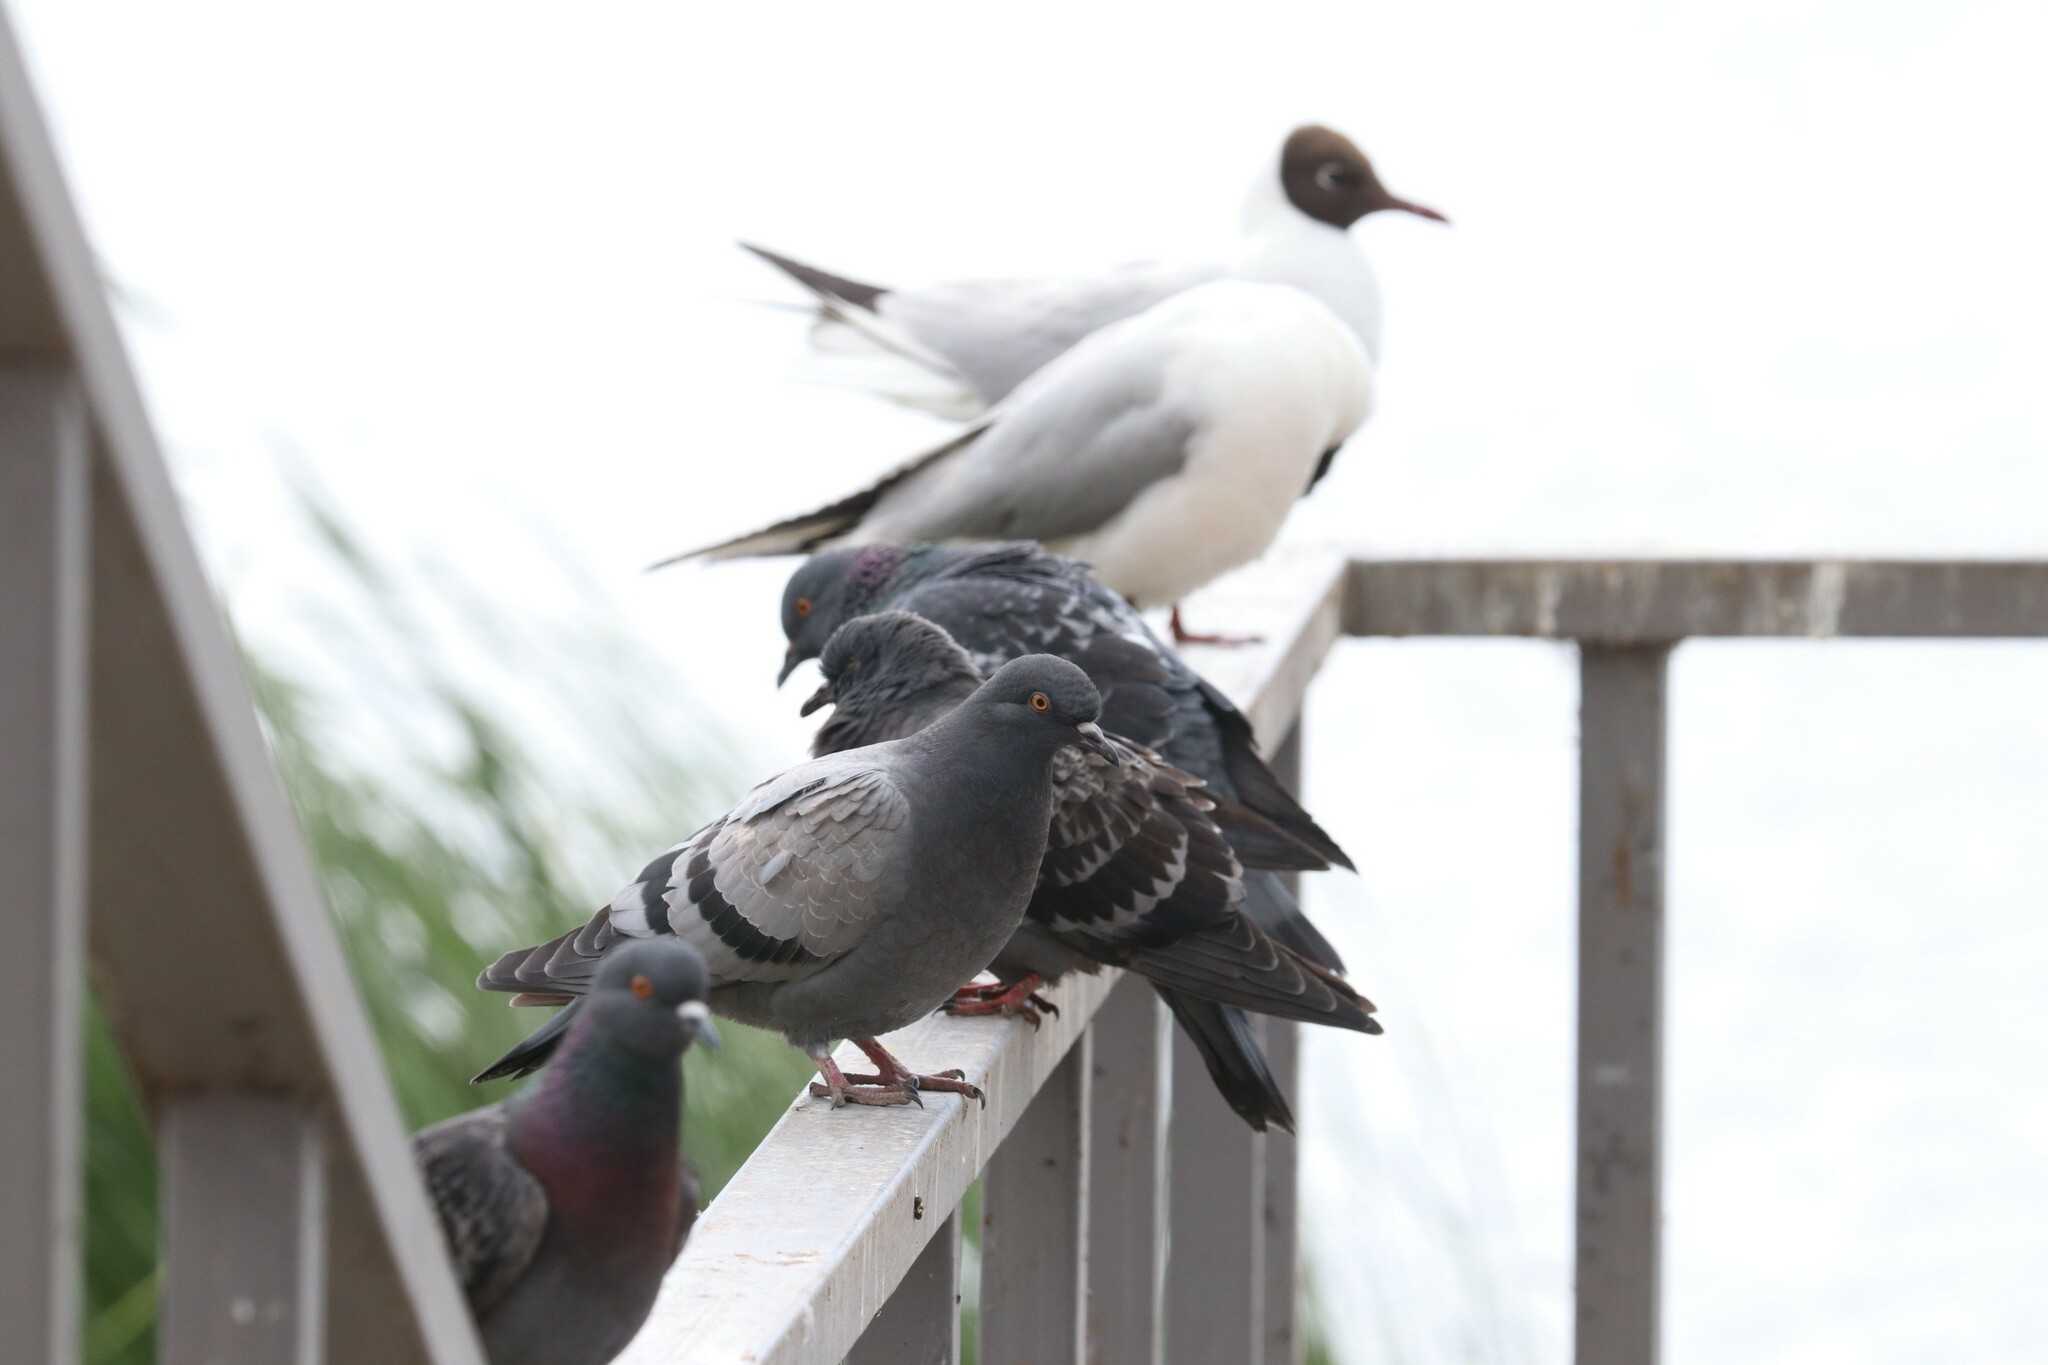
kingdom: Animalia
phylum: Chordata
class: Aves
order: Columbiformes
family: Columbidae
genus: Columba
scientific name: Columba livia
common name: Rock pigeon
